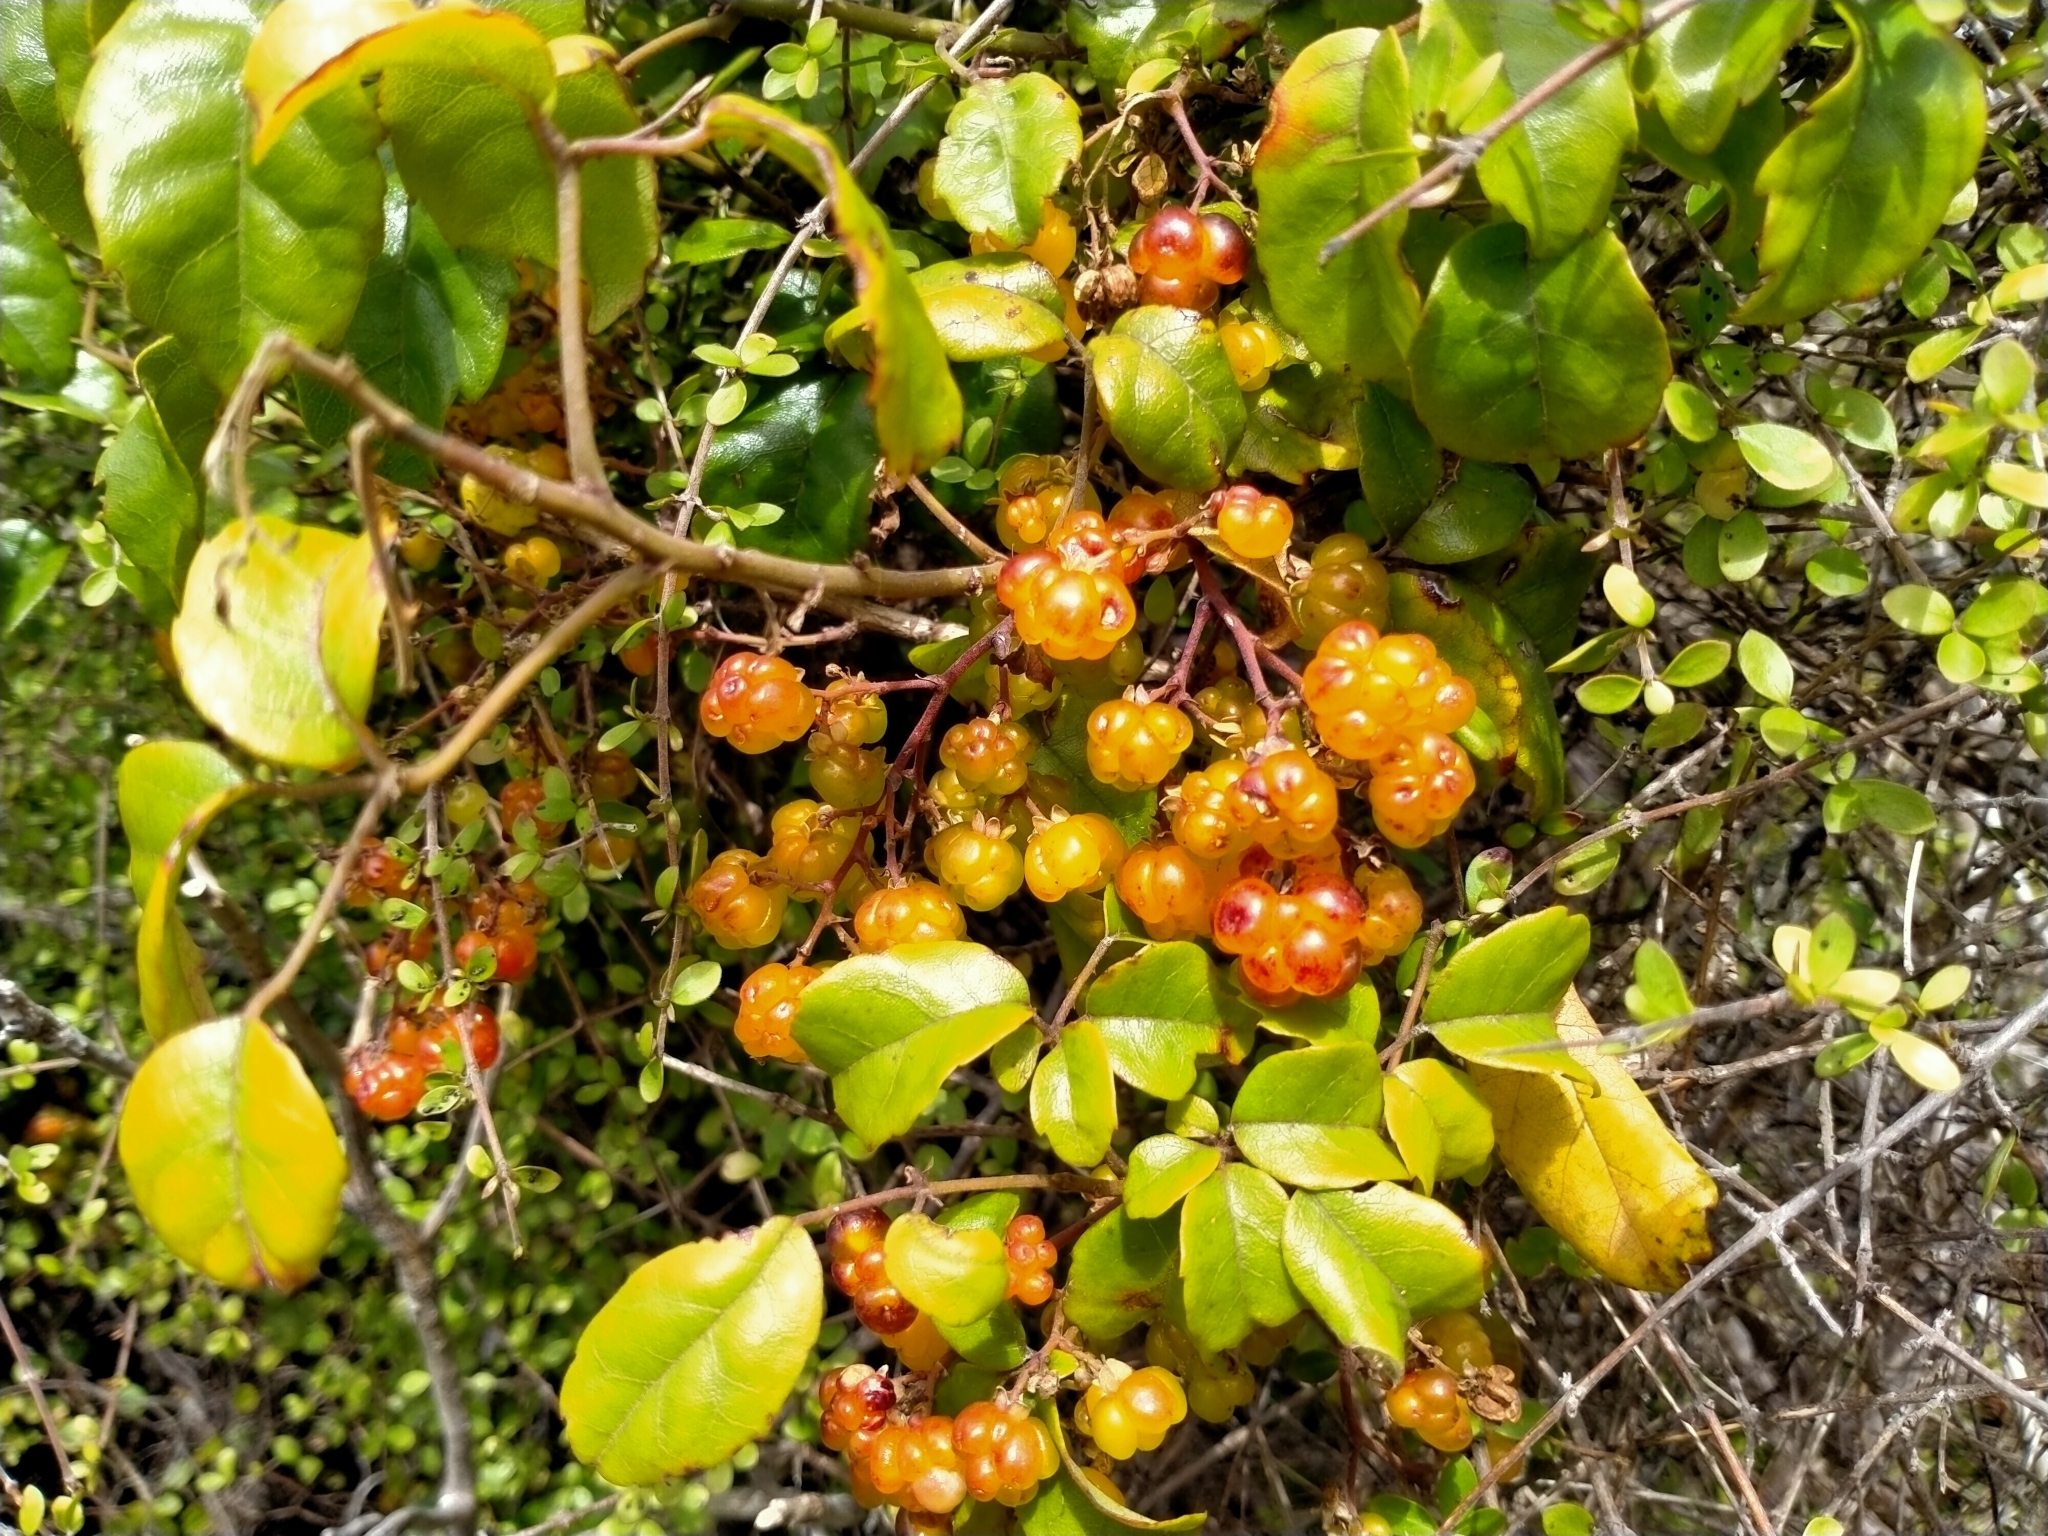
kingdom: Plantae
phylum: Tracheophyta
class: Magnoliopsida
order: Rosales
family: Rosaceae
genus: Rubus
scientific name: Rubus australis
